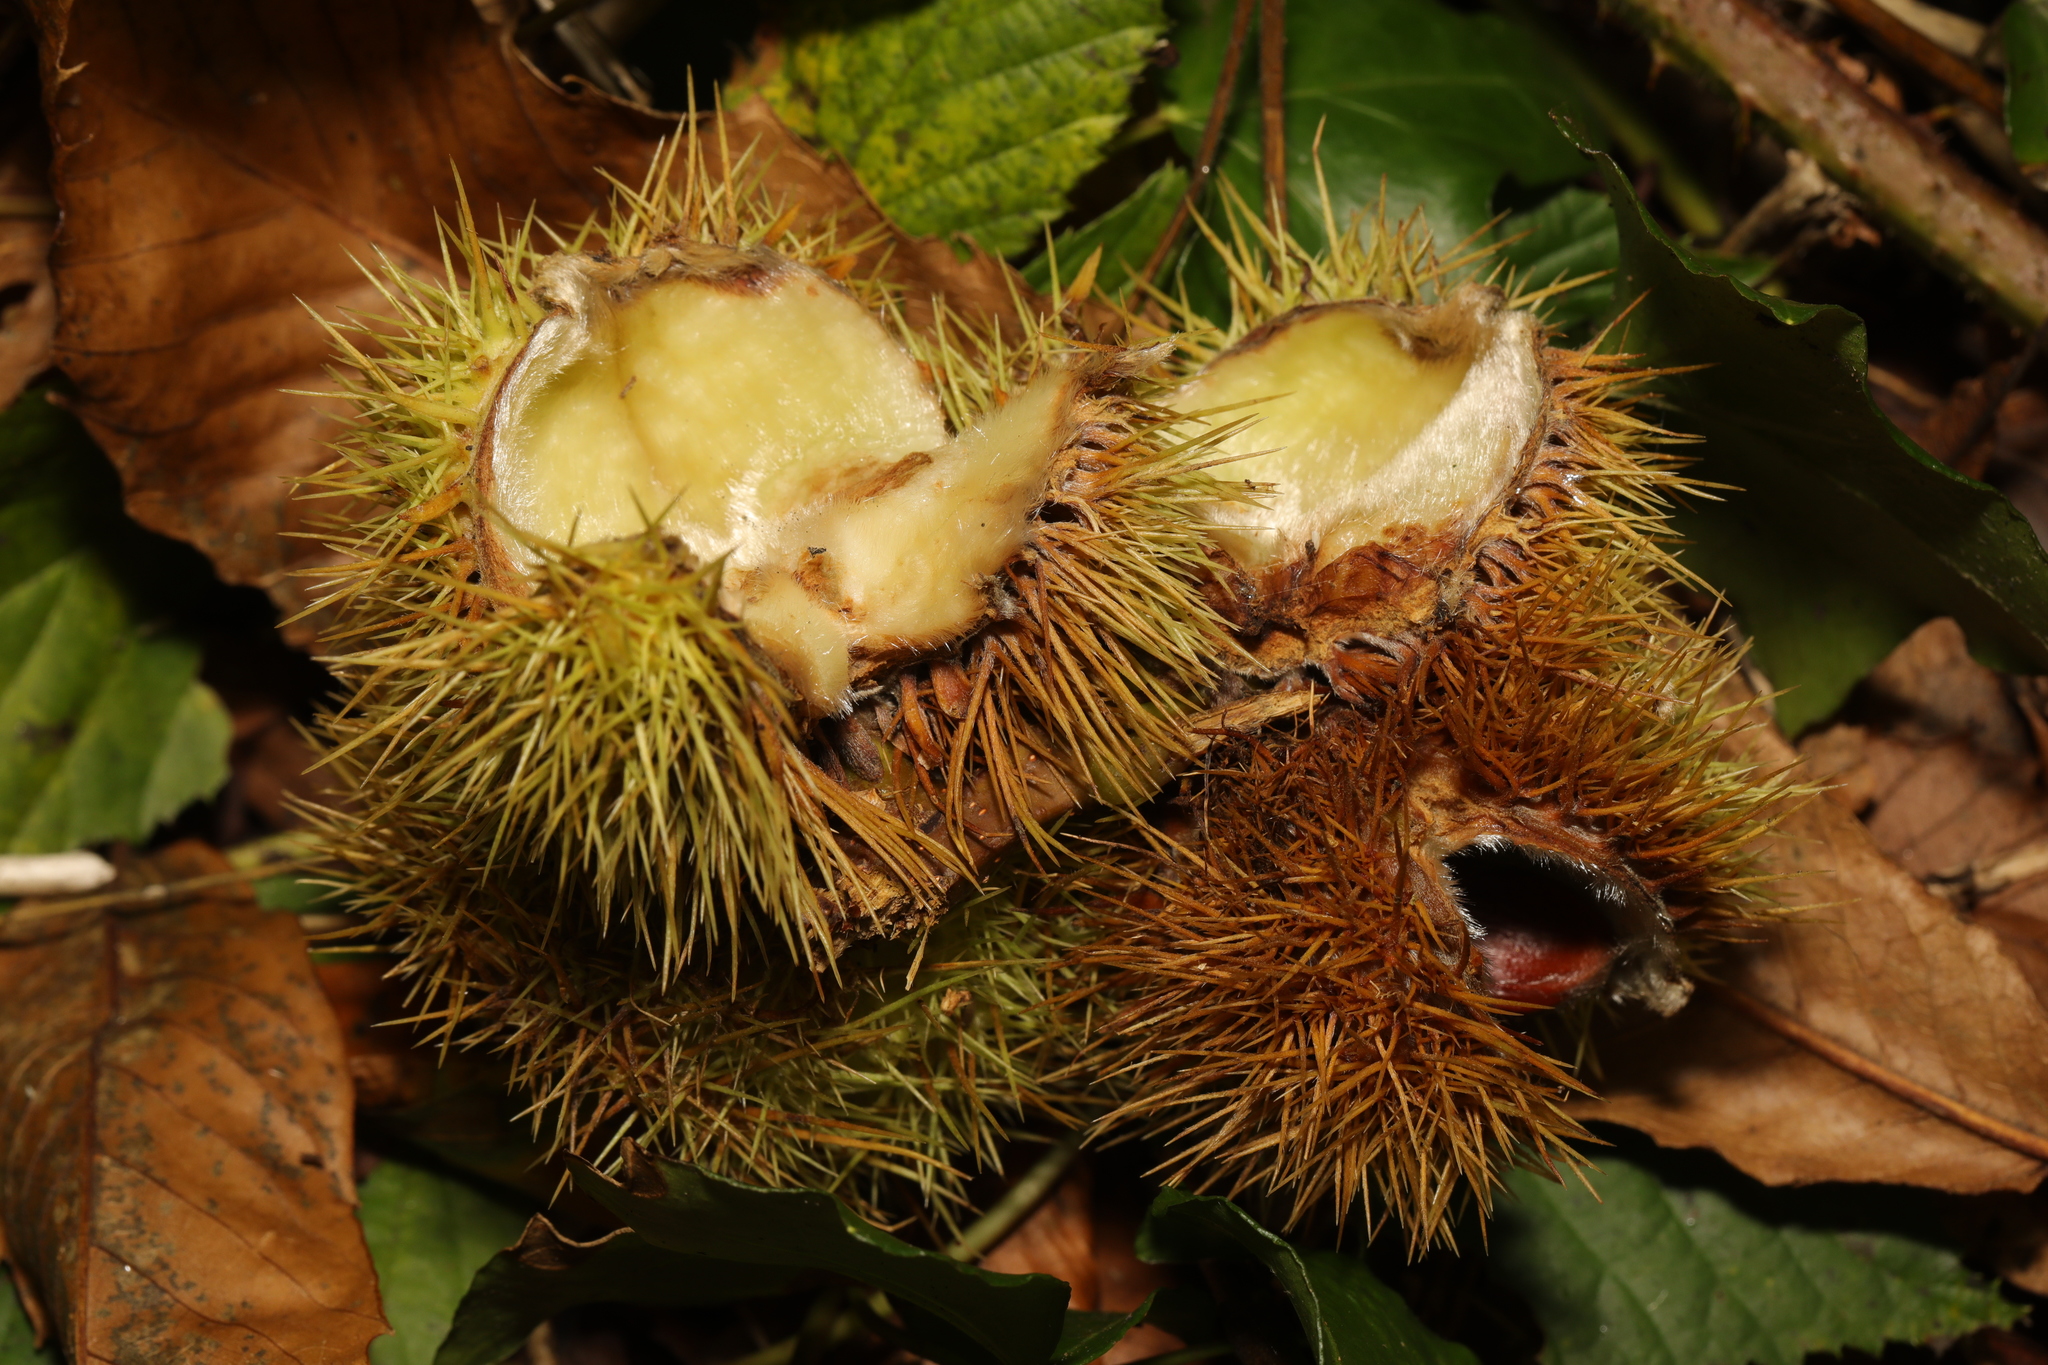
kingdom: Plantae
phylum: Tracheophyta
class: Magnoliopsida
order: Fagales
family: Fagaceae
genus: Castanea
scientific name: Castanea sativa
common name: Sweet chestnut
